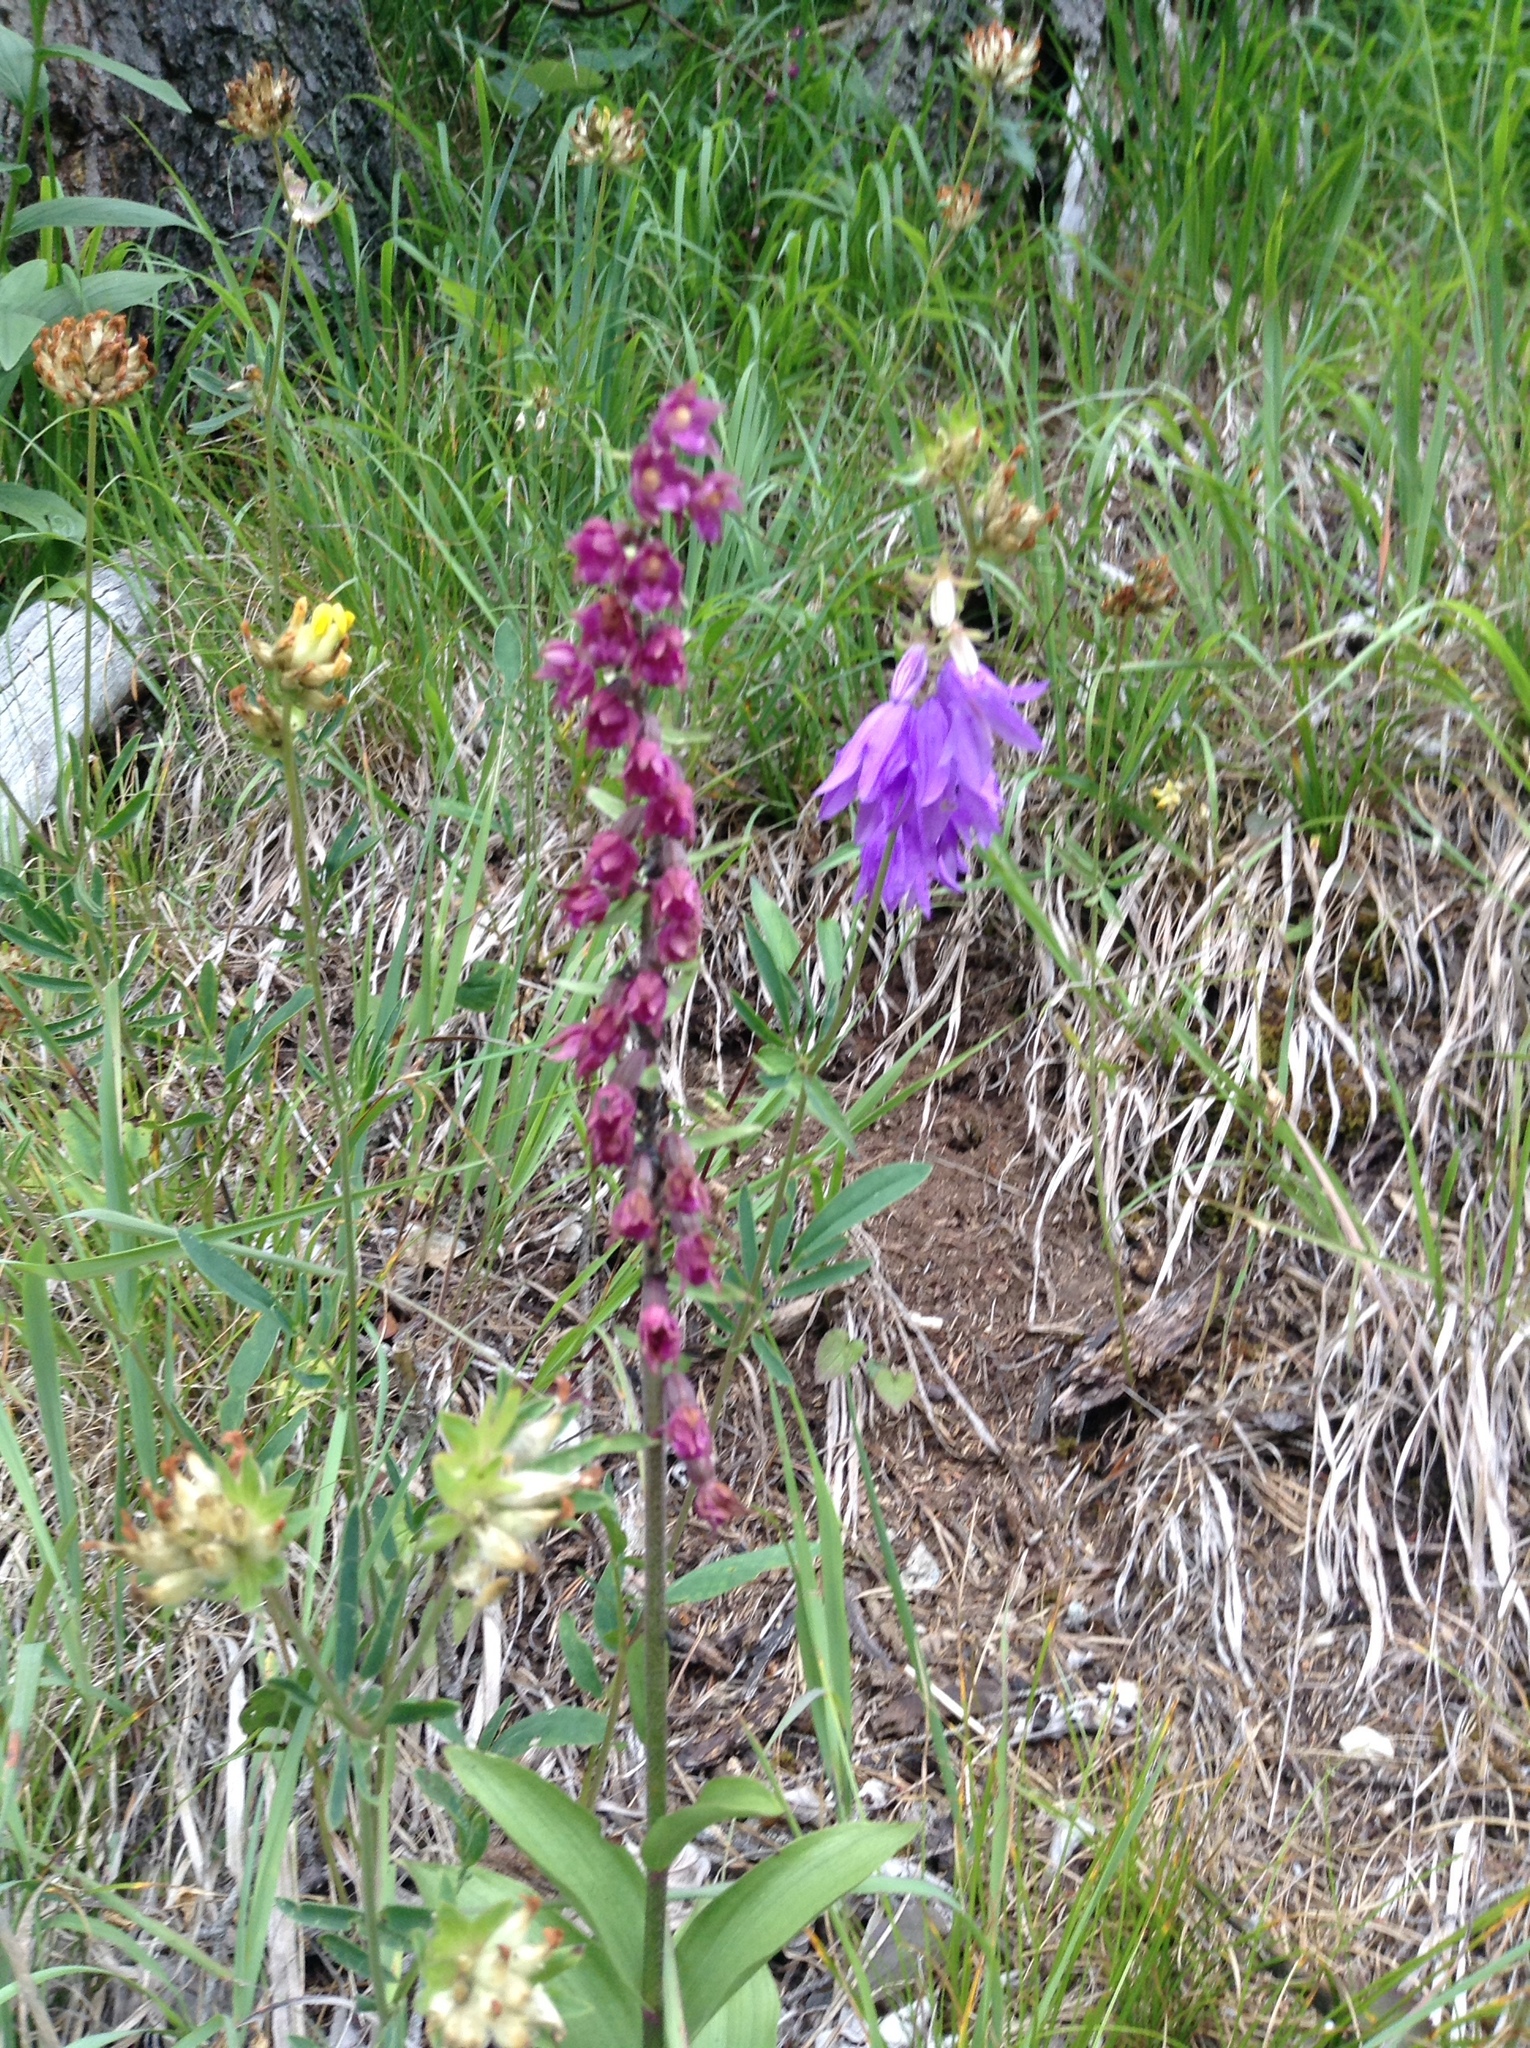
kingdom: Plantae
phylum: Tracheophyta
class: Liliopsida
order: Asparagales
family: Orchidaceae
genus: Epipactis
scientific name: Epipactis atrorubens
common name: Dark-red helleborine
